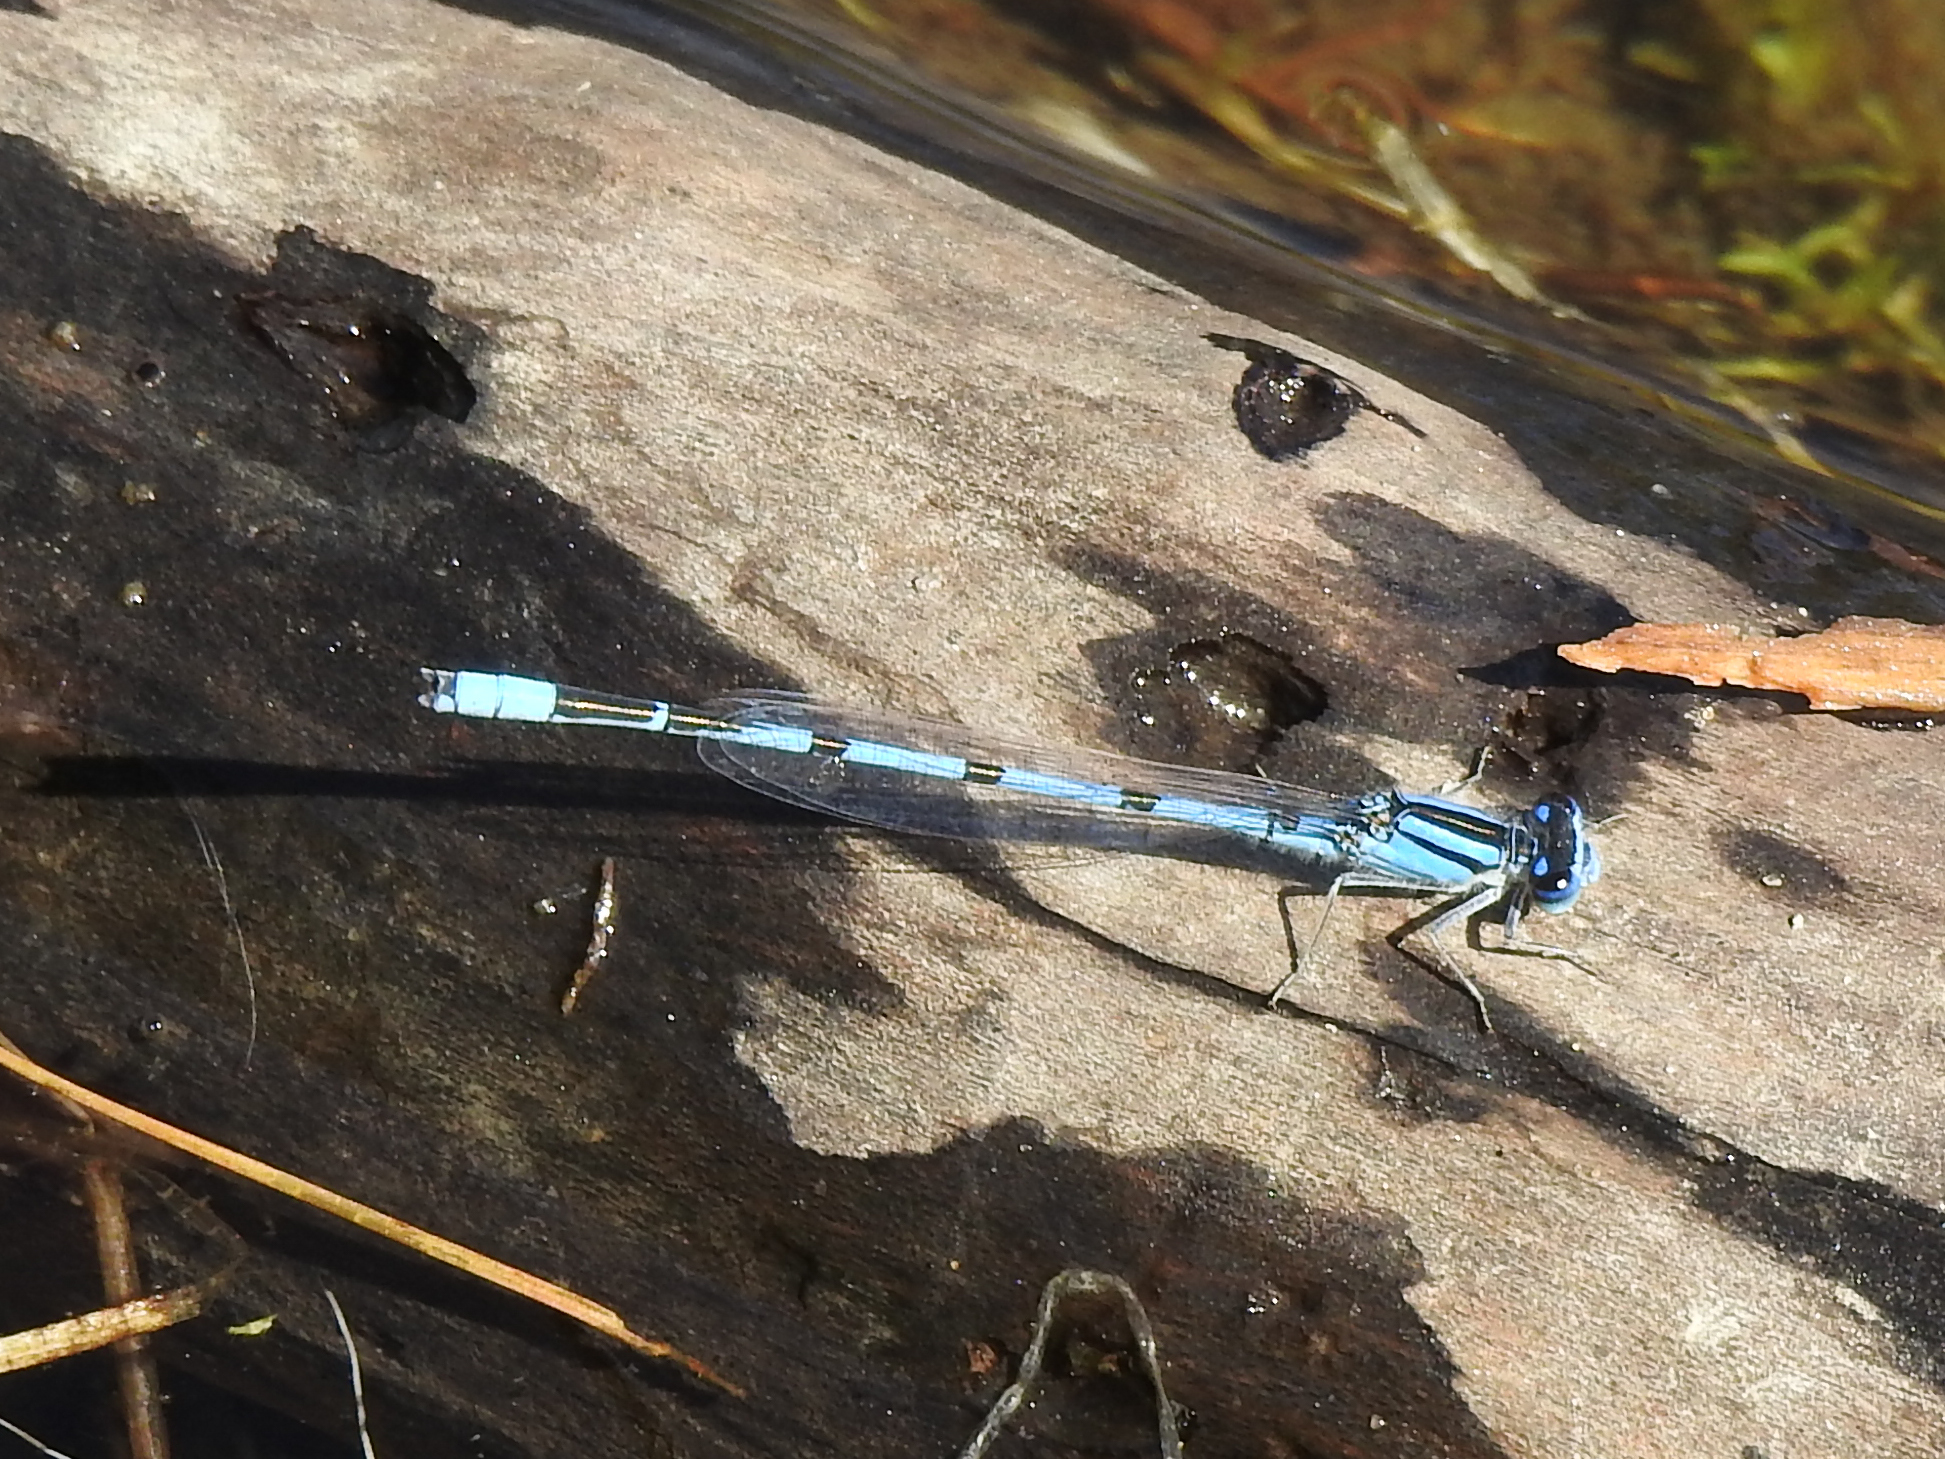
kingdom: Animalia
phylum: Arthropoda
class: Insecta
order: Odonata
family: Coenagrionidae
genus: Enallagma
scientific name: Enallagma civile
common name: Damselfly
